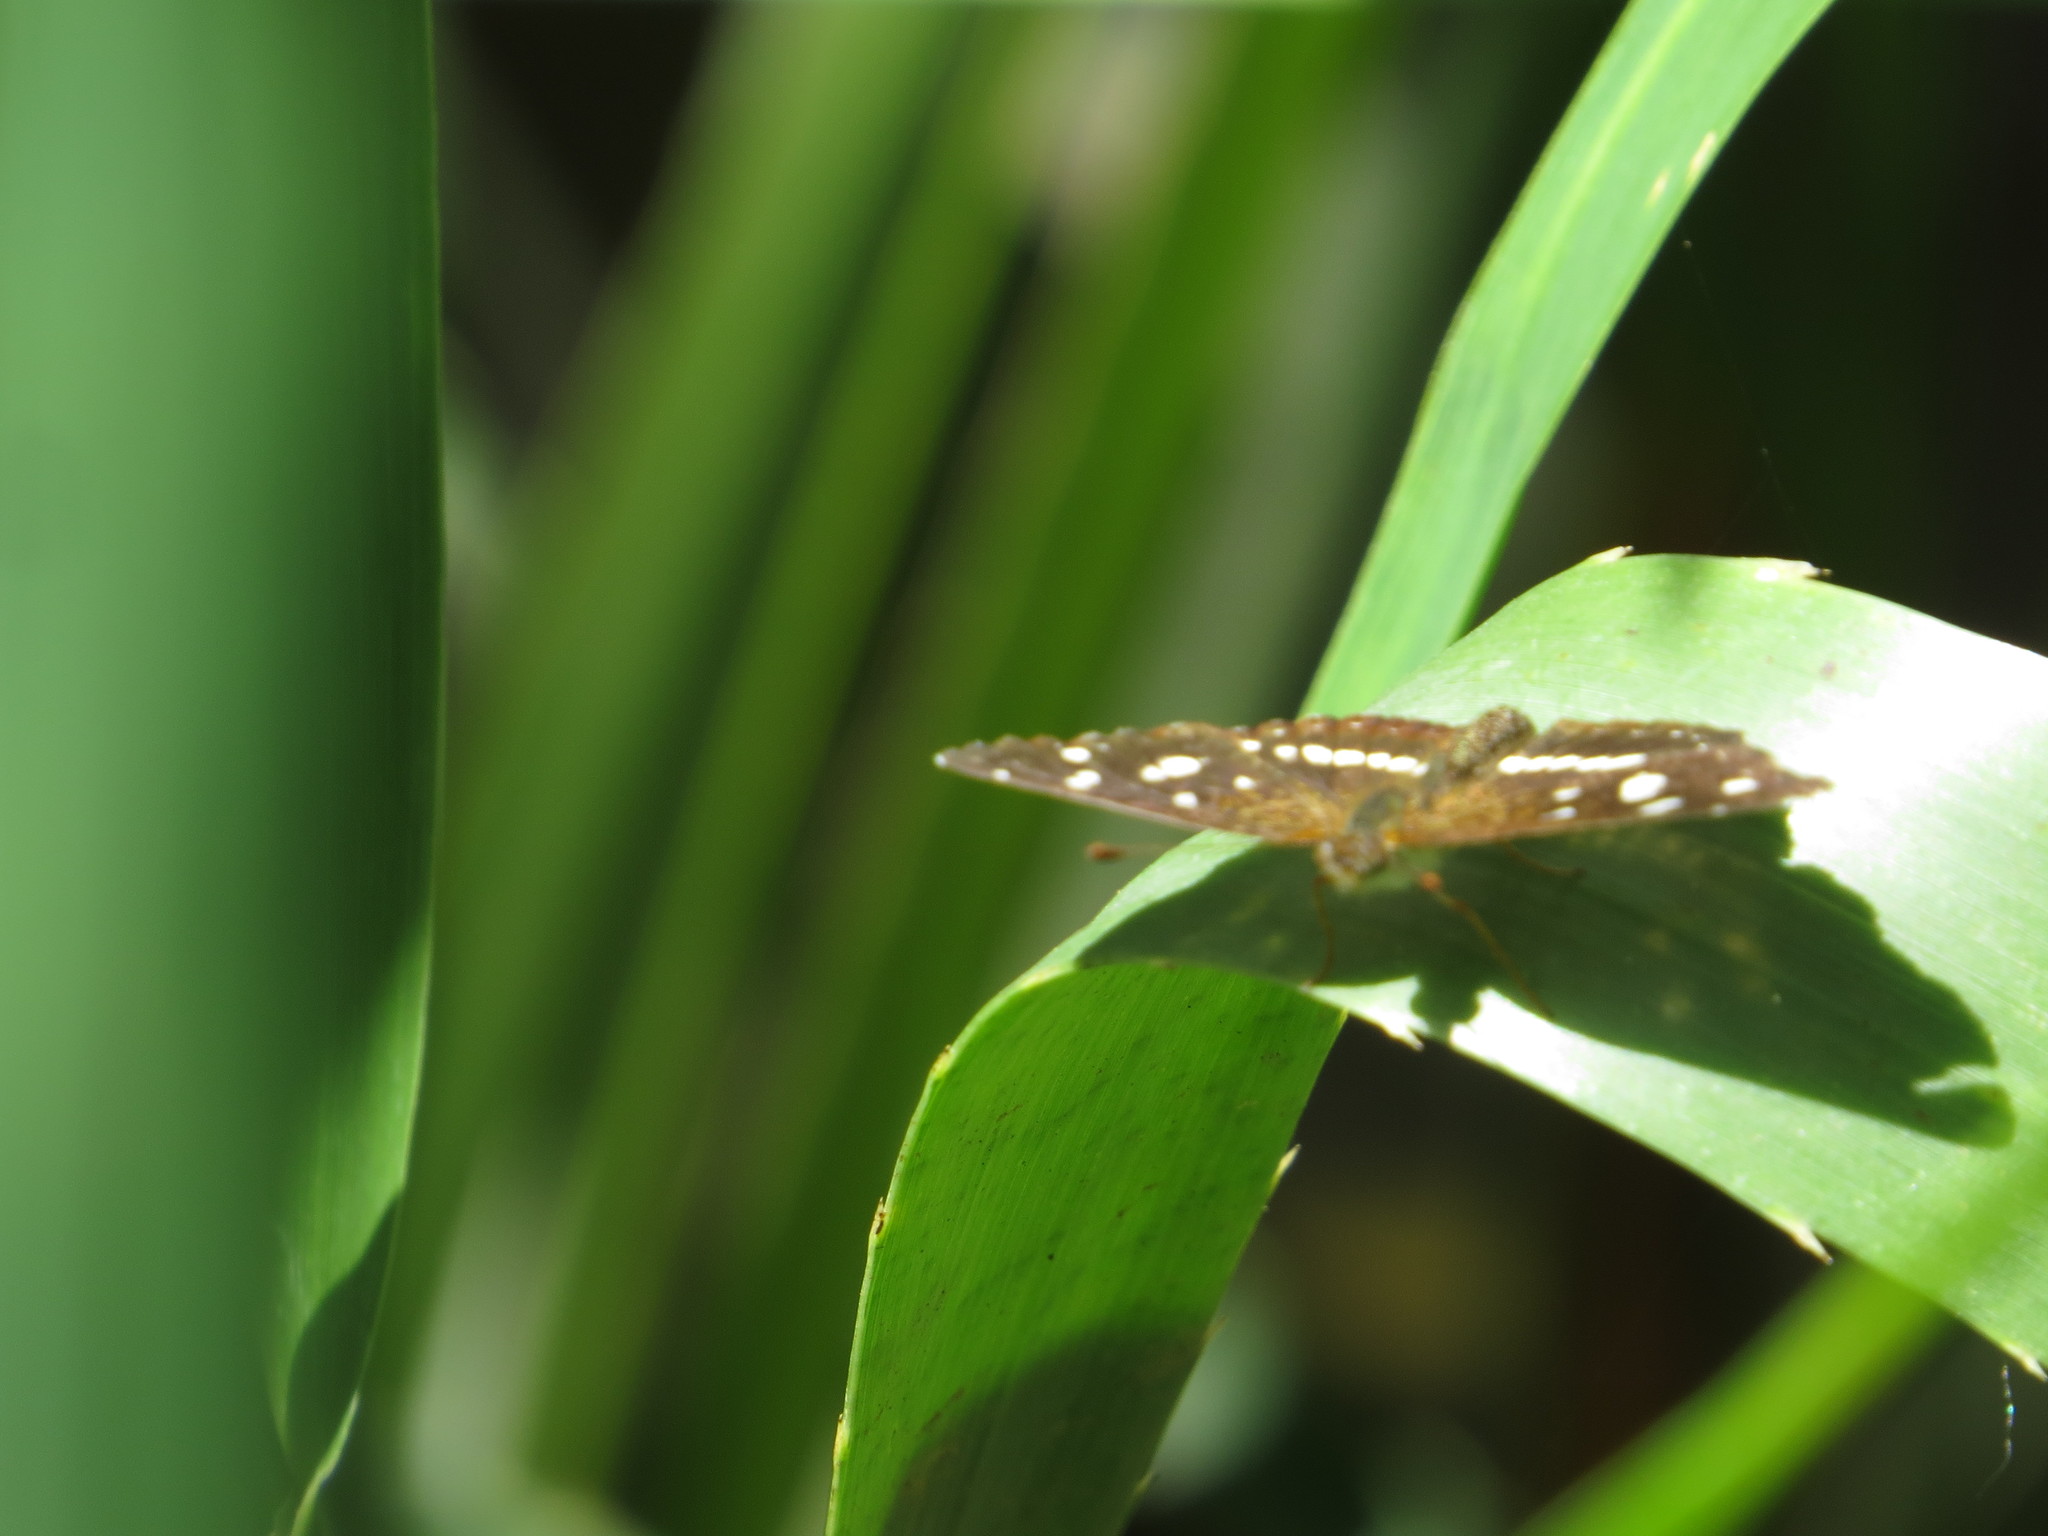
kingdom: Animalia
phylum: Arthropoda
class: Insecta
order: Lepidoptera
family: Nymphalidae
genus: Ortilia
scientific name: Ortilia ithra
